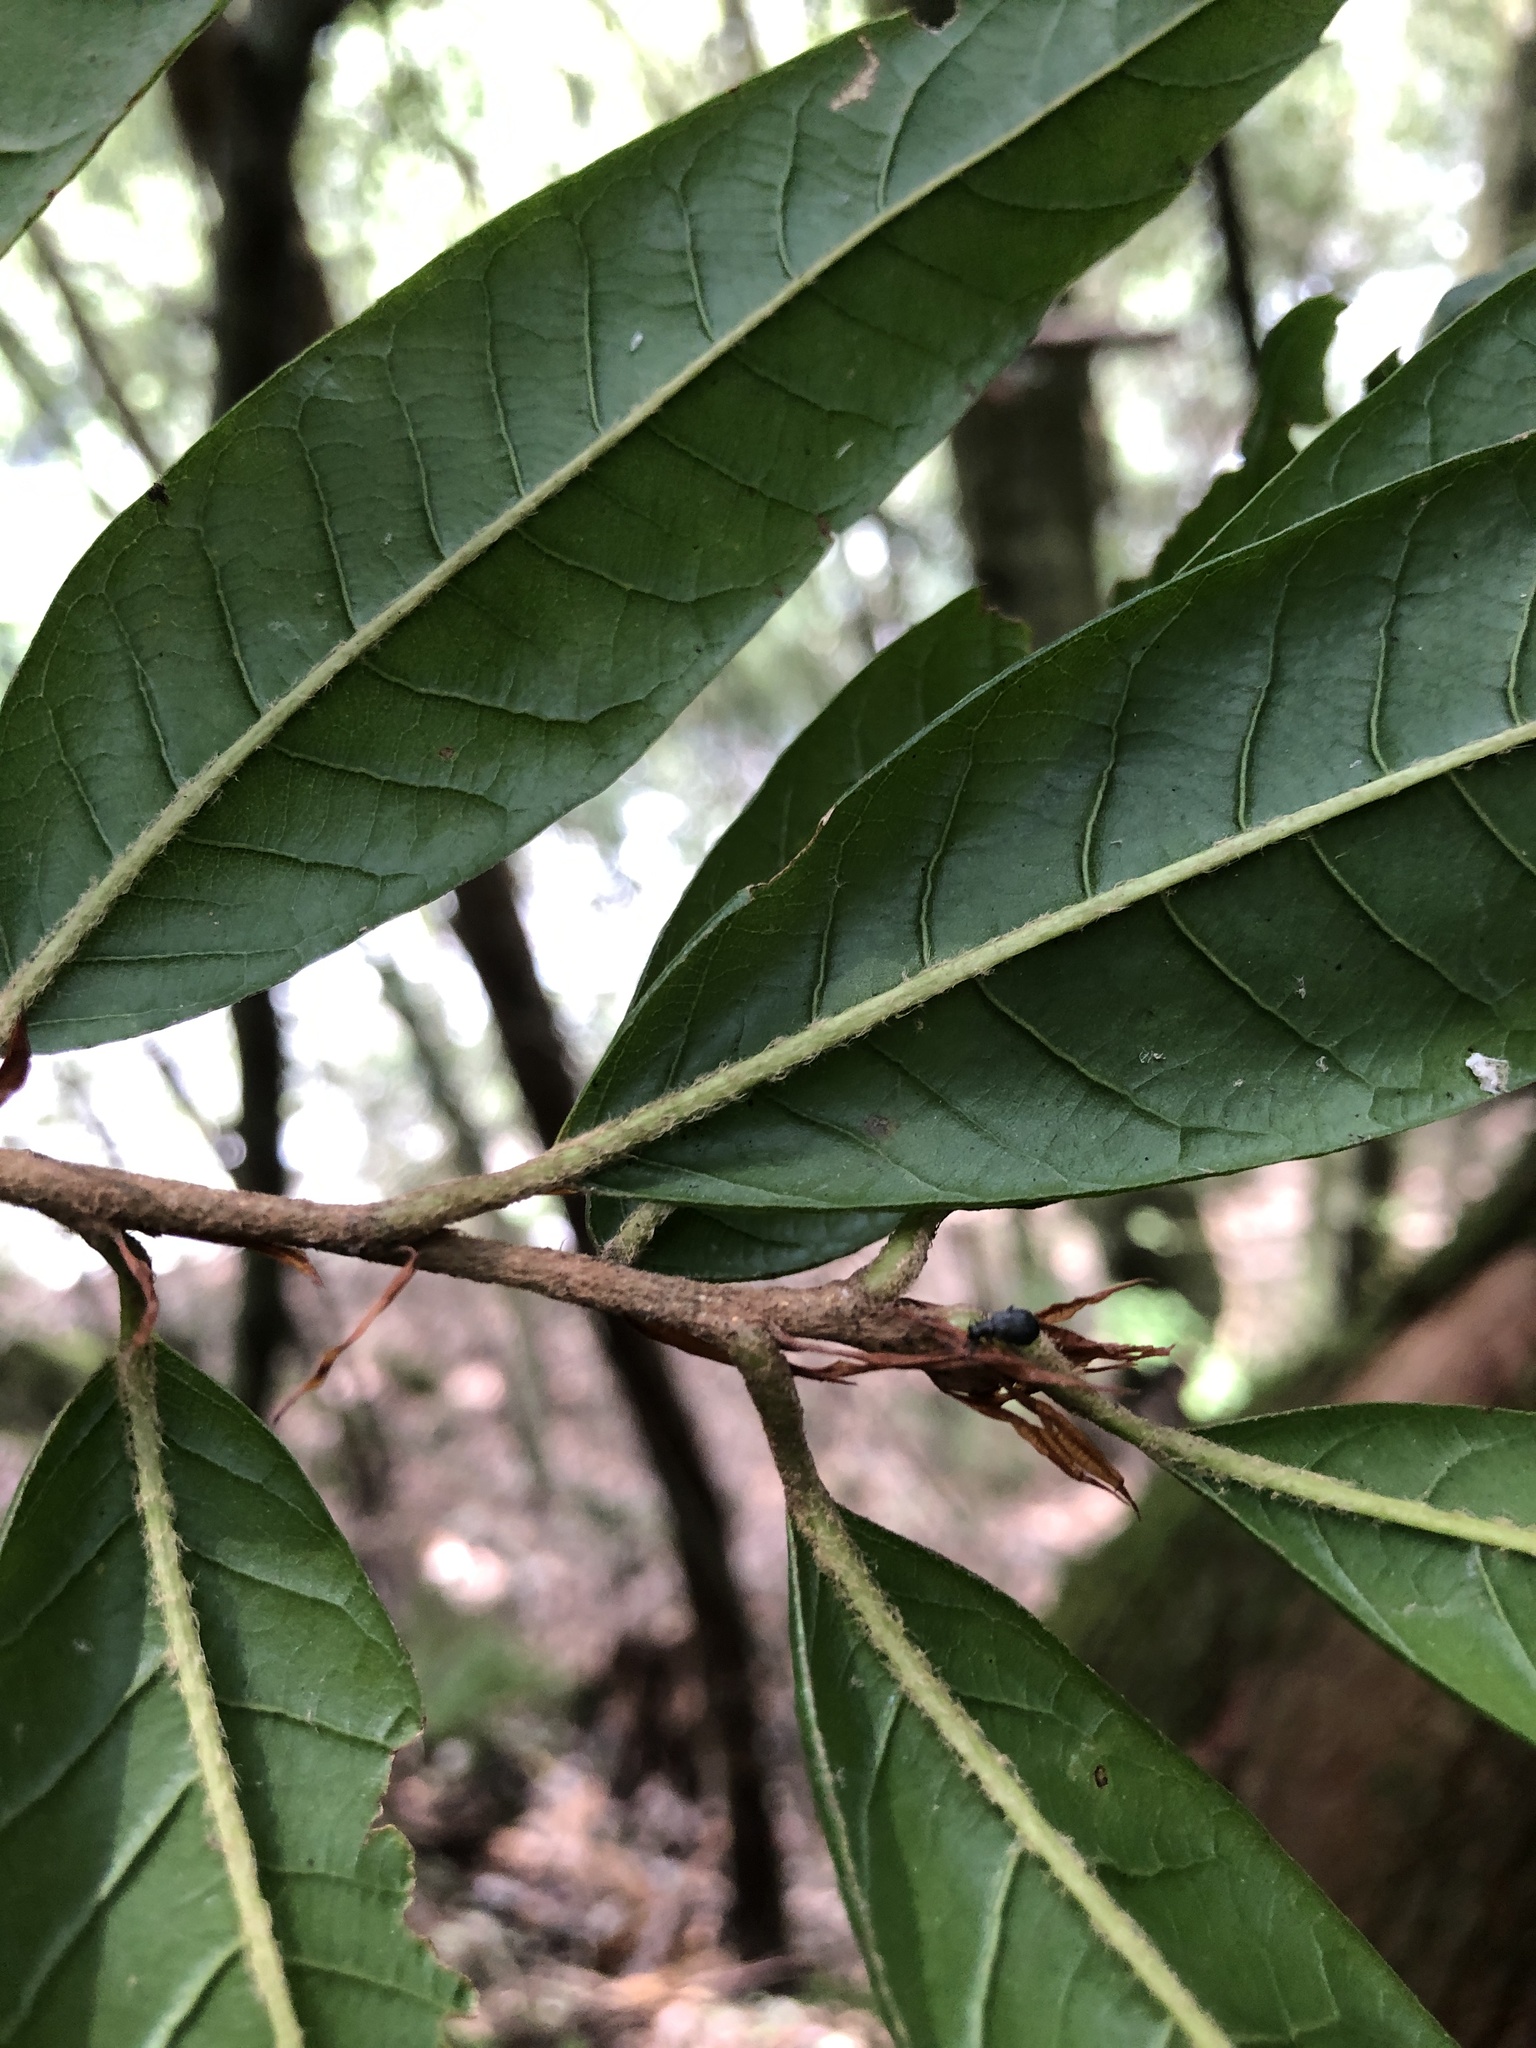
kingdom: Plantae
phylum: Tracheophyta
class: Magnoliopsida
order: Fagales
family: Fagaceae
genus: Quercus
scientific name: Quercus tatakaensis
